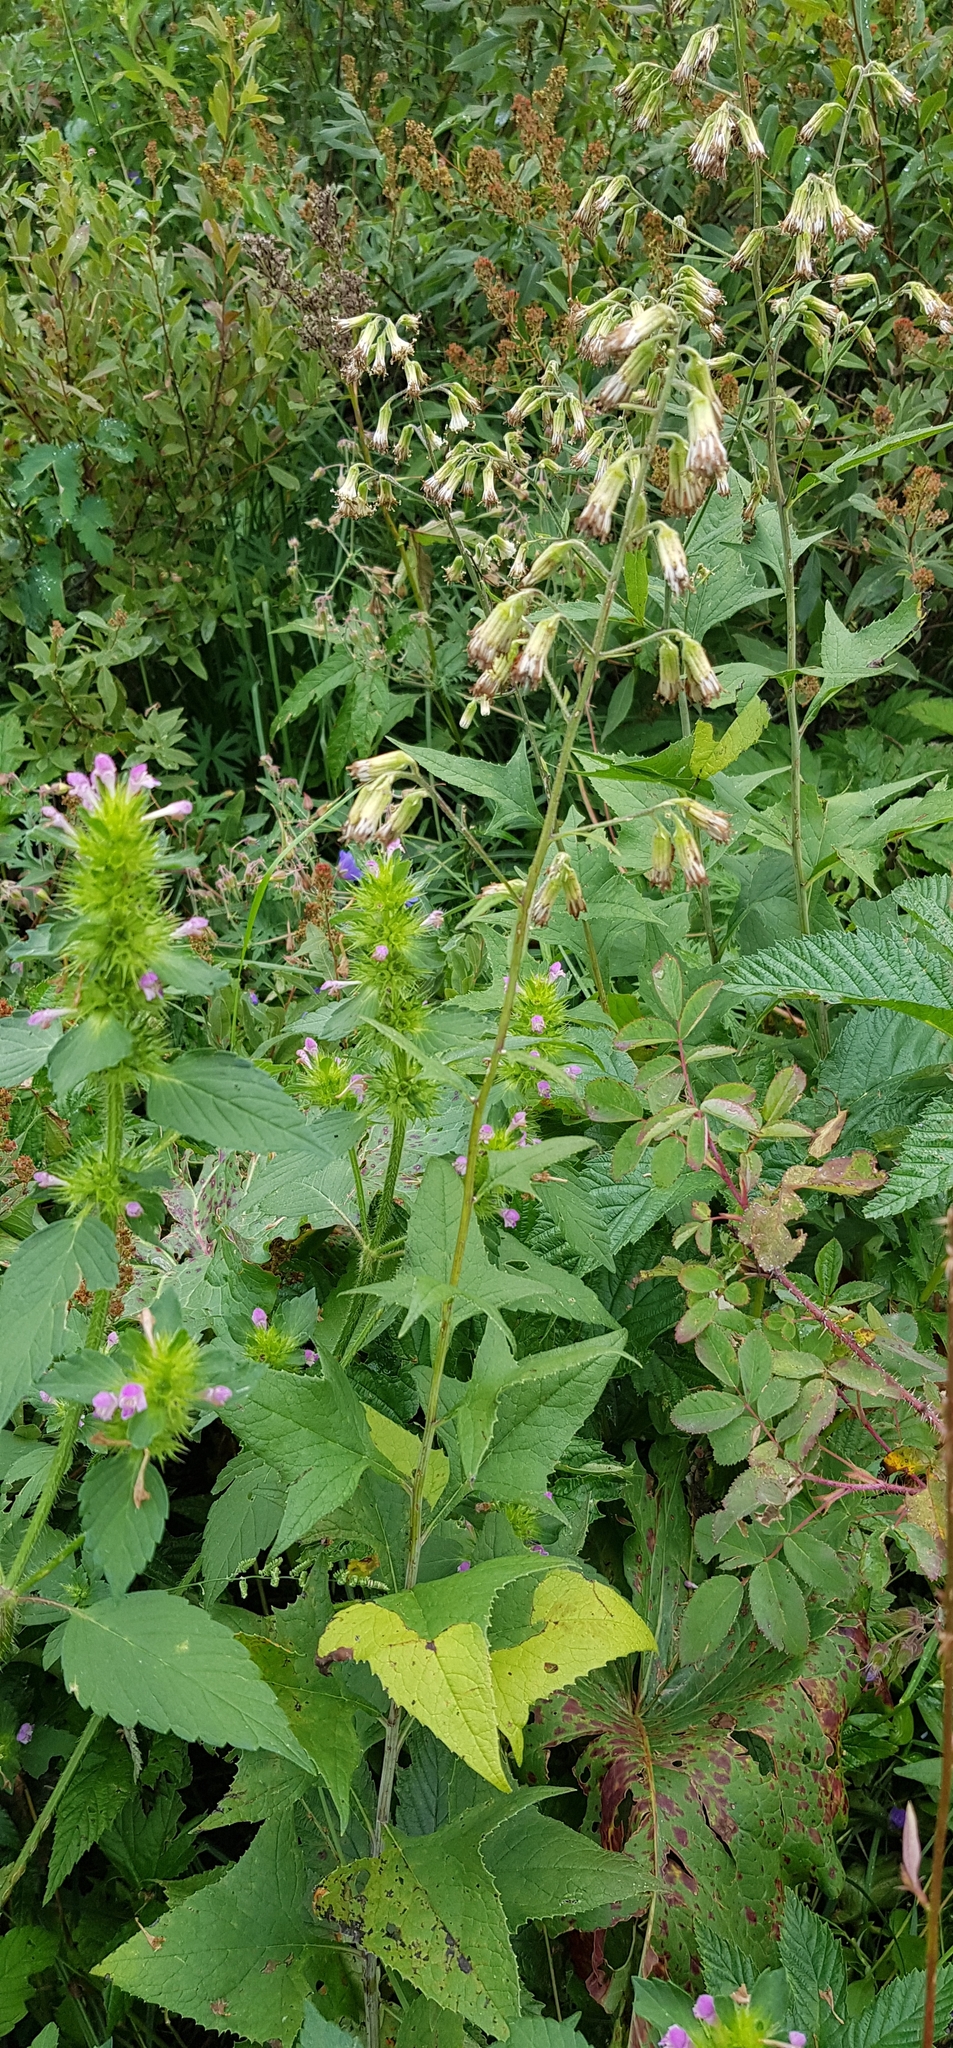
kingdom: Plantae
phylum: Tracheophyta
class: Magnoliopsida
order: Asterales
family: Asteraceae
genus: Parasenecio
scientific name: Parasenecio hastatus
